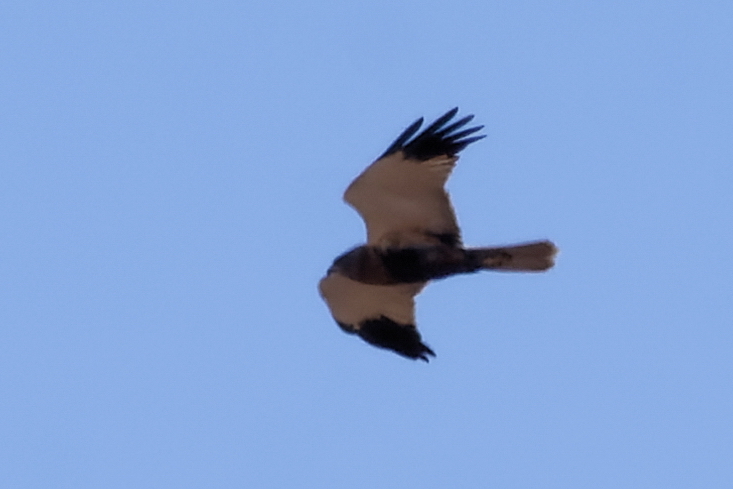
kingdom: Animalia
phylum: Chordata
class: Aves
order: Accipitriformes
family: Accipitridae
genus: Circus
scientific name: Circus aeruginosus
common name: Western marsh harrier
